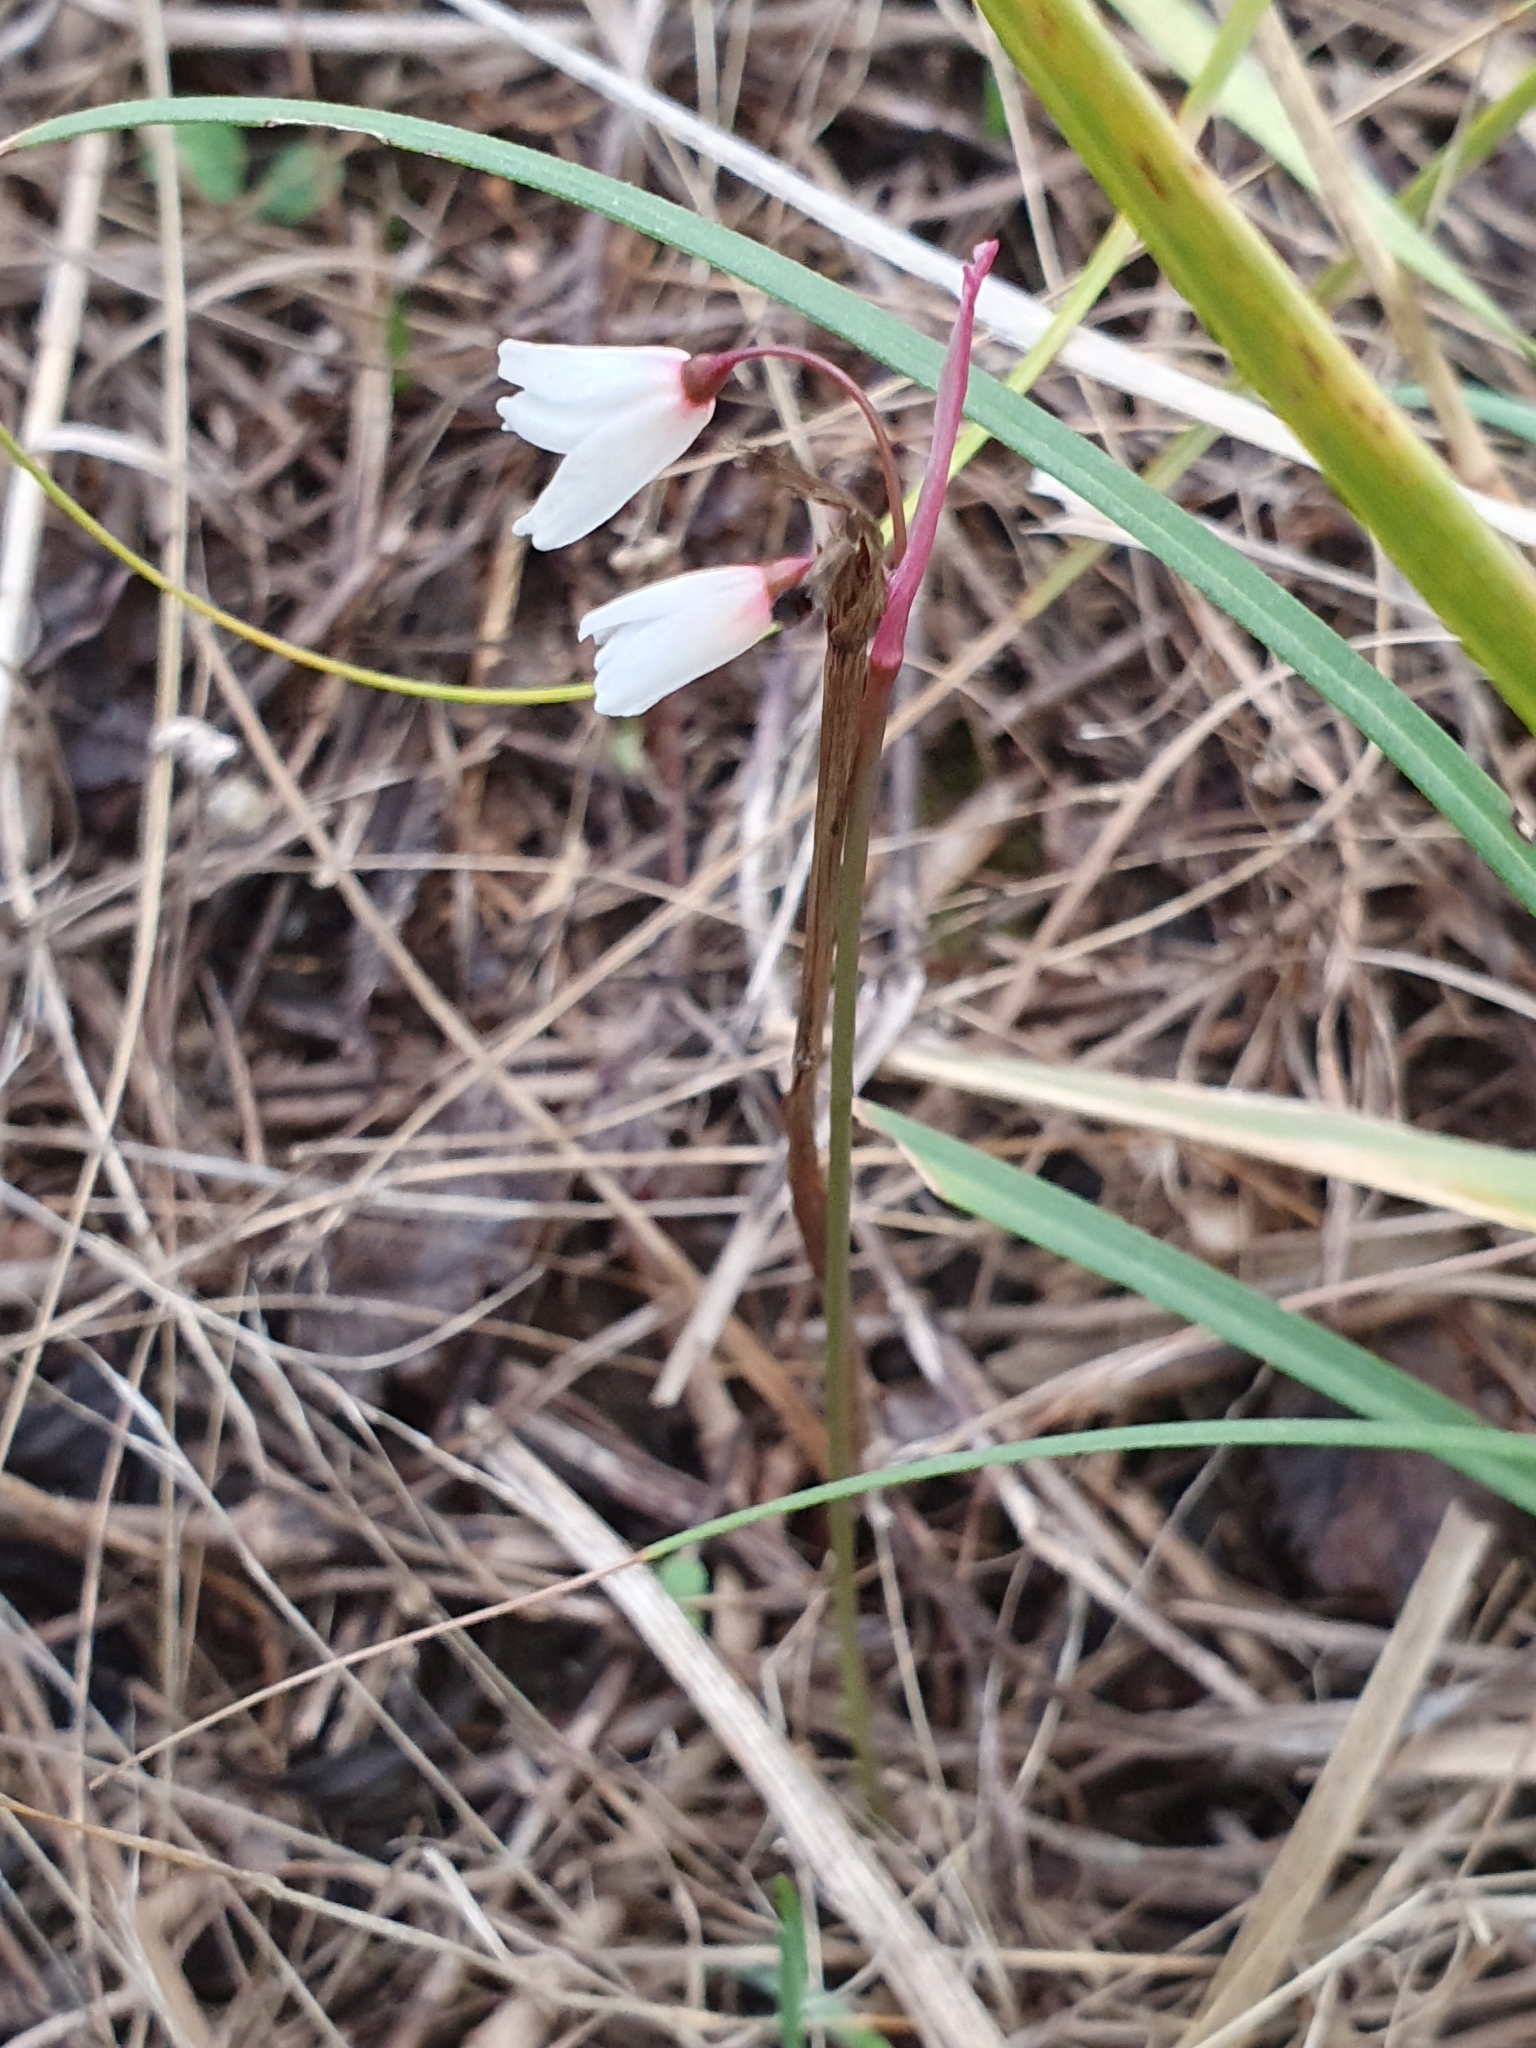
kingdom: Plantae
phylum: Tracheophyta
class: Liliopsida
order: Asparagales
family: Amaryllidaceae
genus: Acis
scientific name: Acis autumnalis
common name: Autumn snowflake
